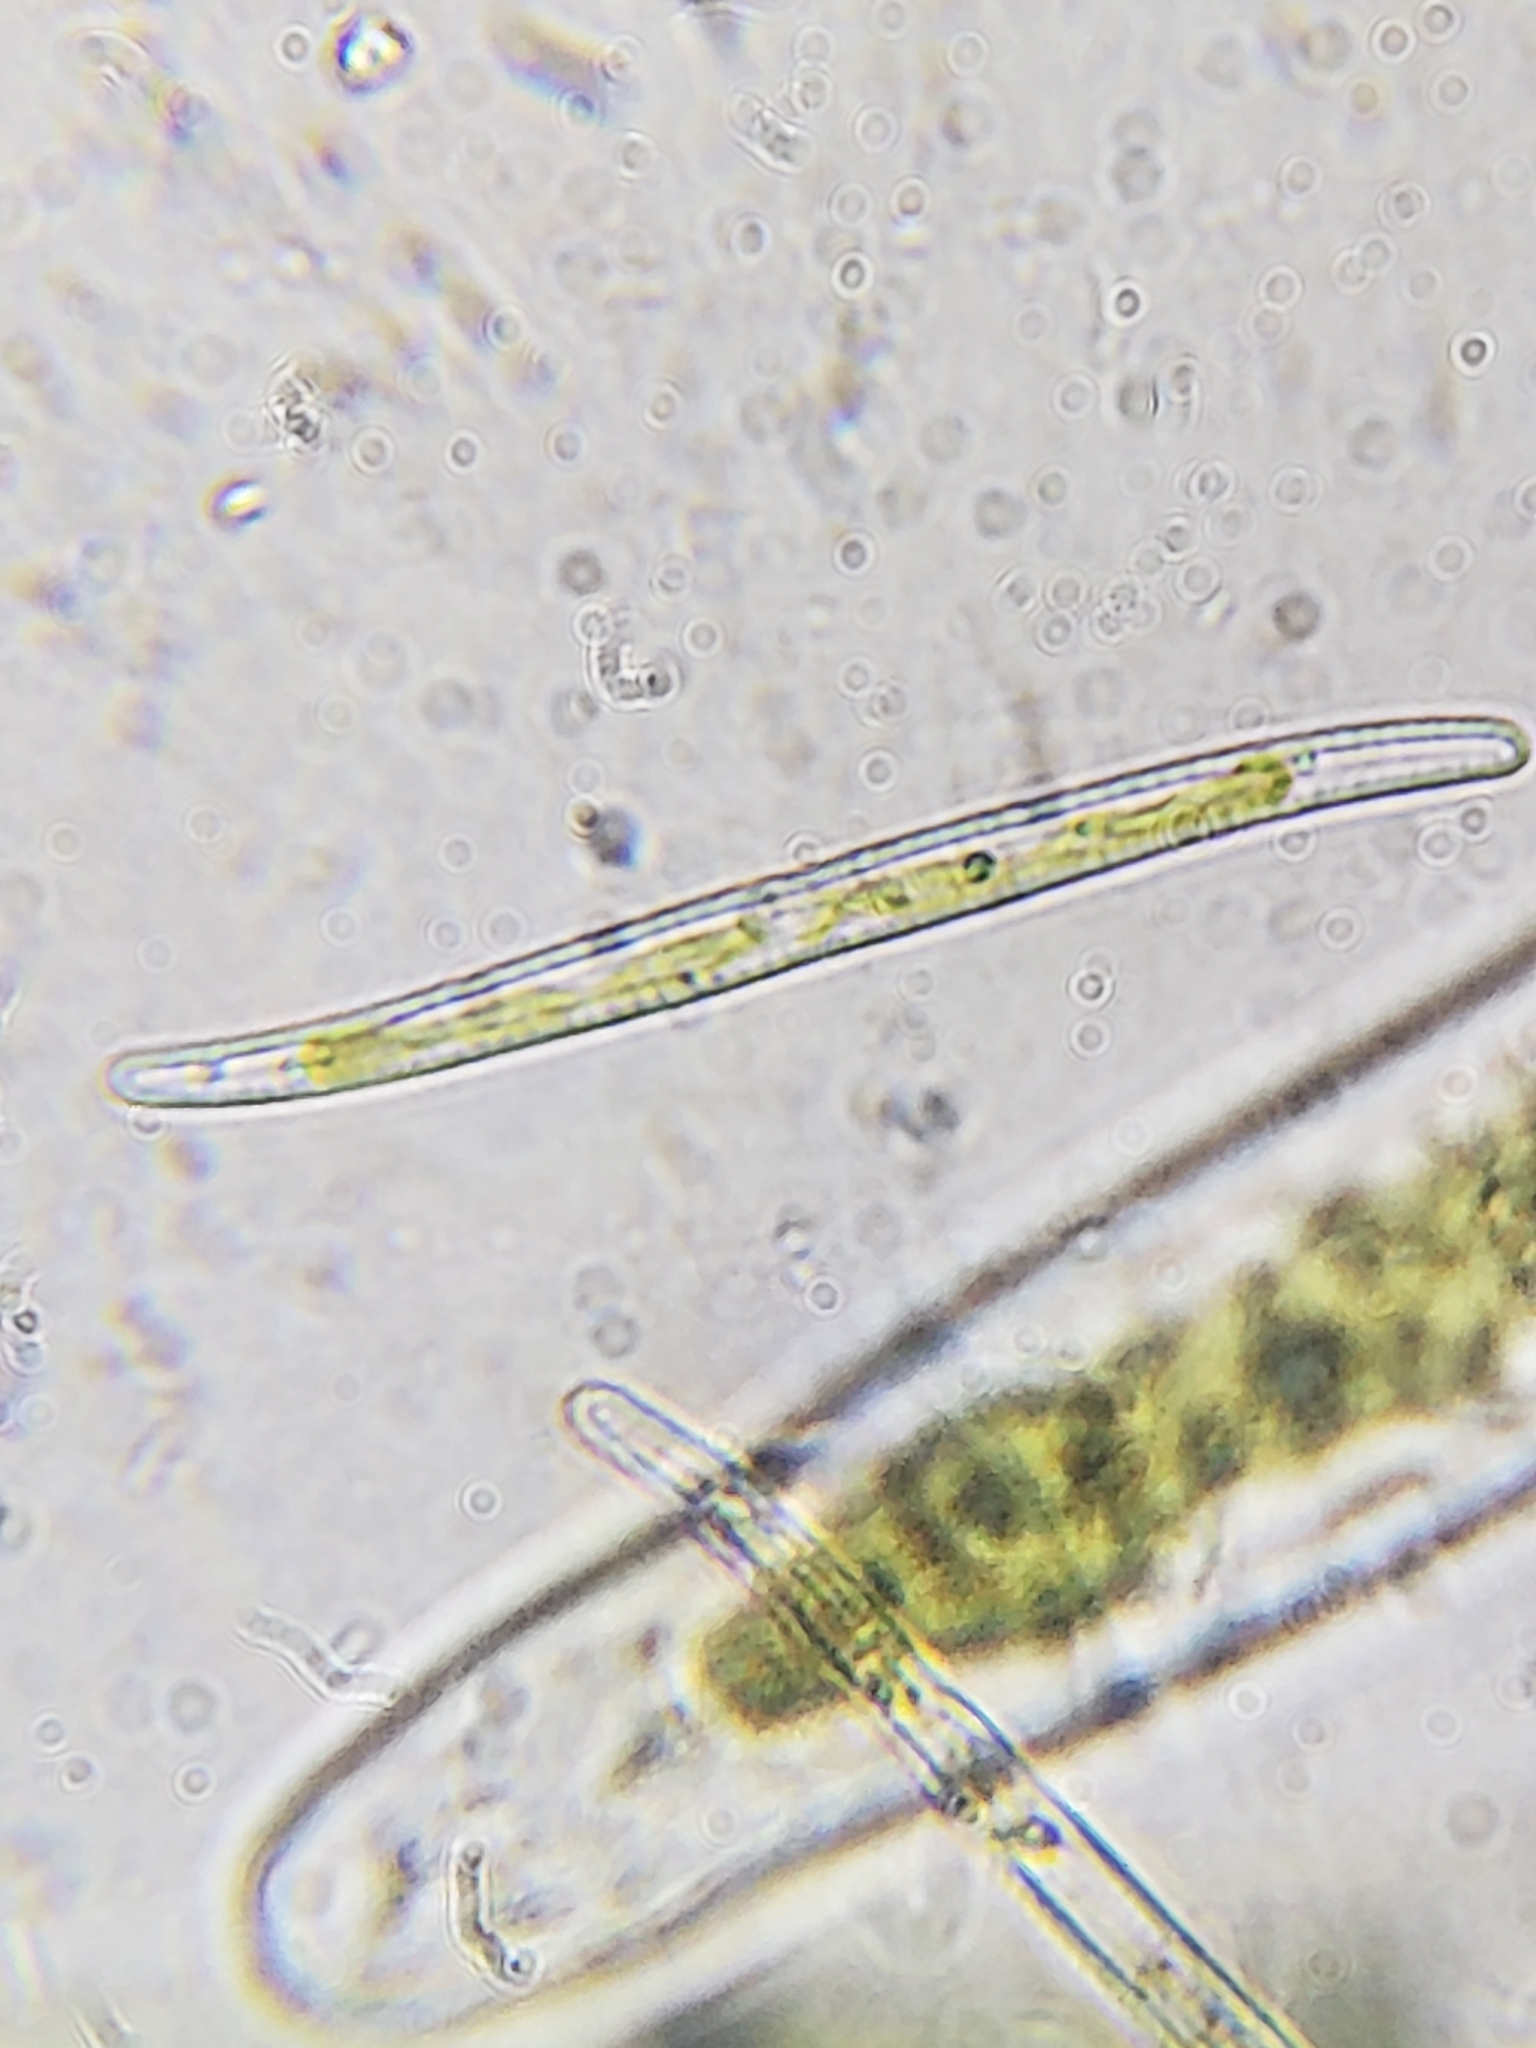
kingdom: Chromista
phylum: Ochrophyta
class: Bacillariophyceae
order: Fragilariales
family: Fragilariaceae
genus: Synedra
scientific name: Synedra curvula
